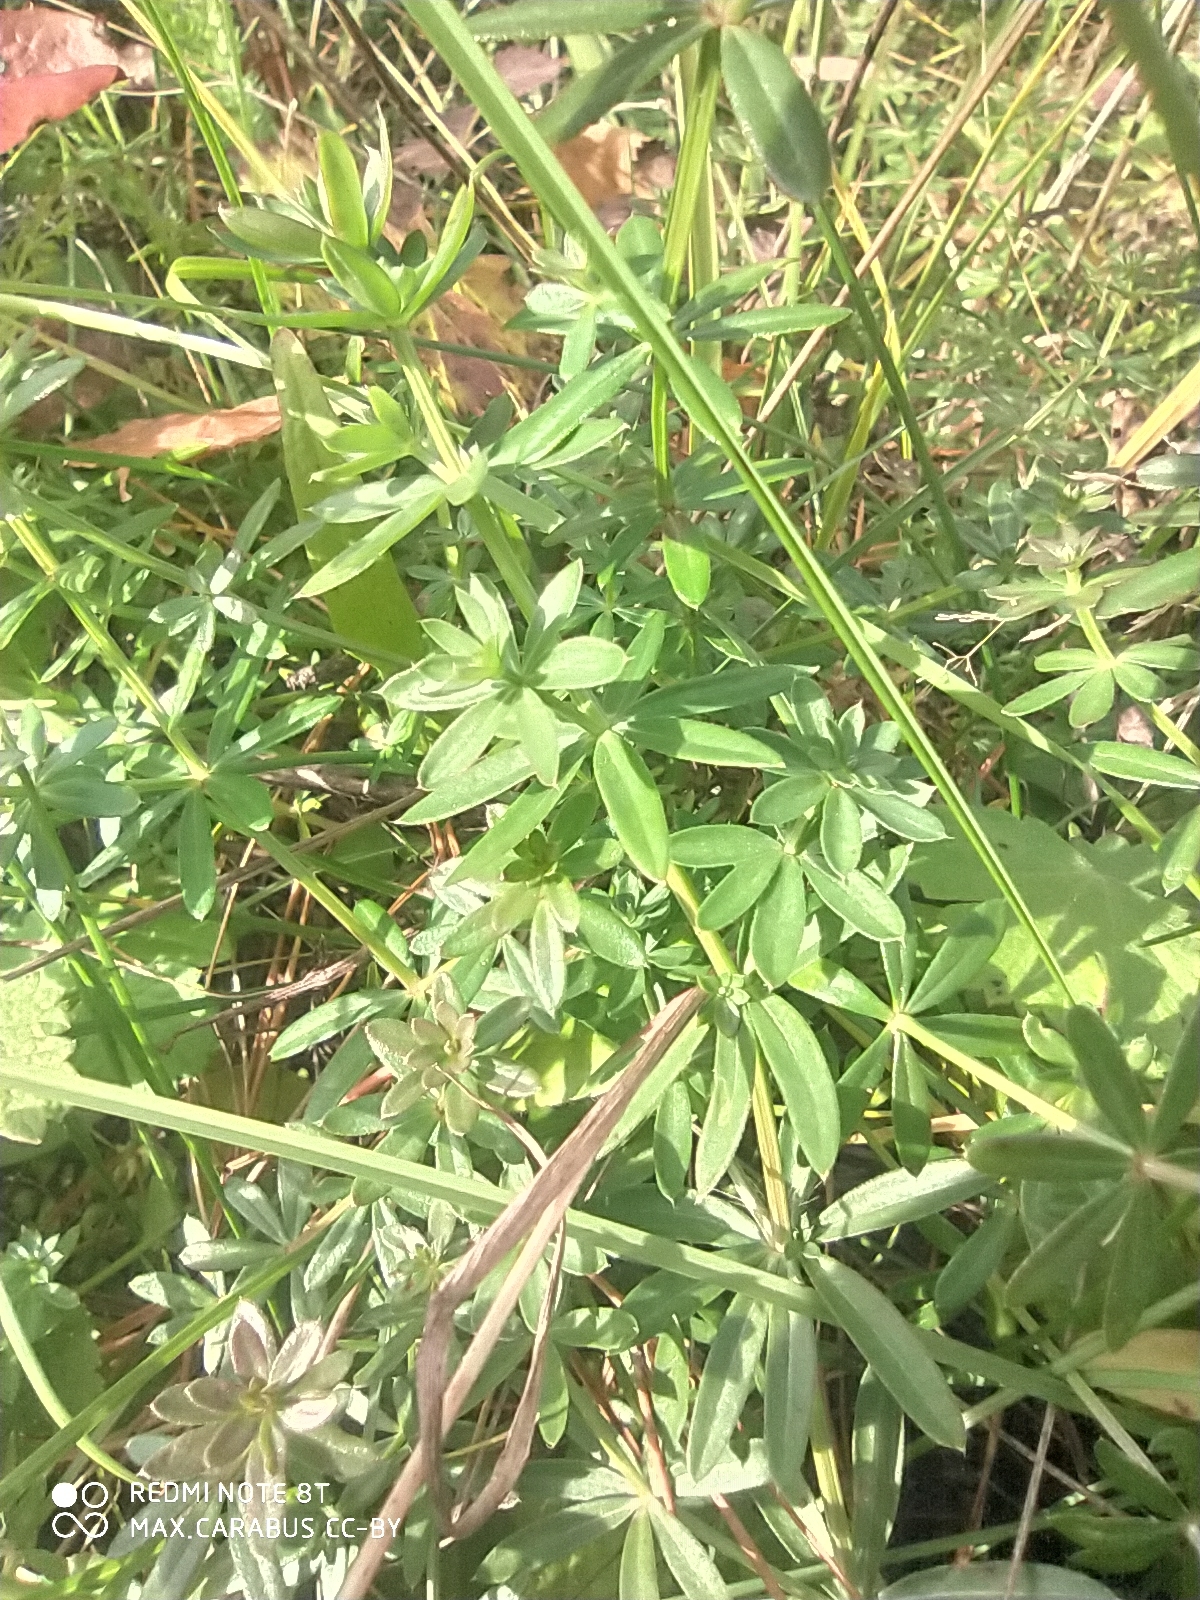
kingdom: Plantae
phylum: Tracheophyta
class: Magnoliopsida
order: Gentianales
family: Rubiaceae
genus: Galium
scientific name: Galium mollugo
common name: Hedge bedstraw
